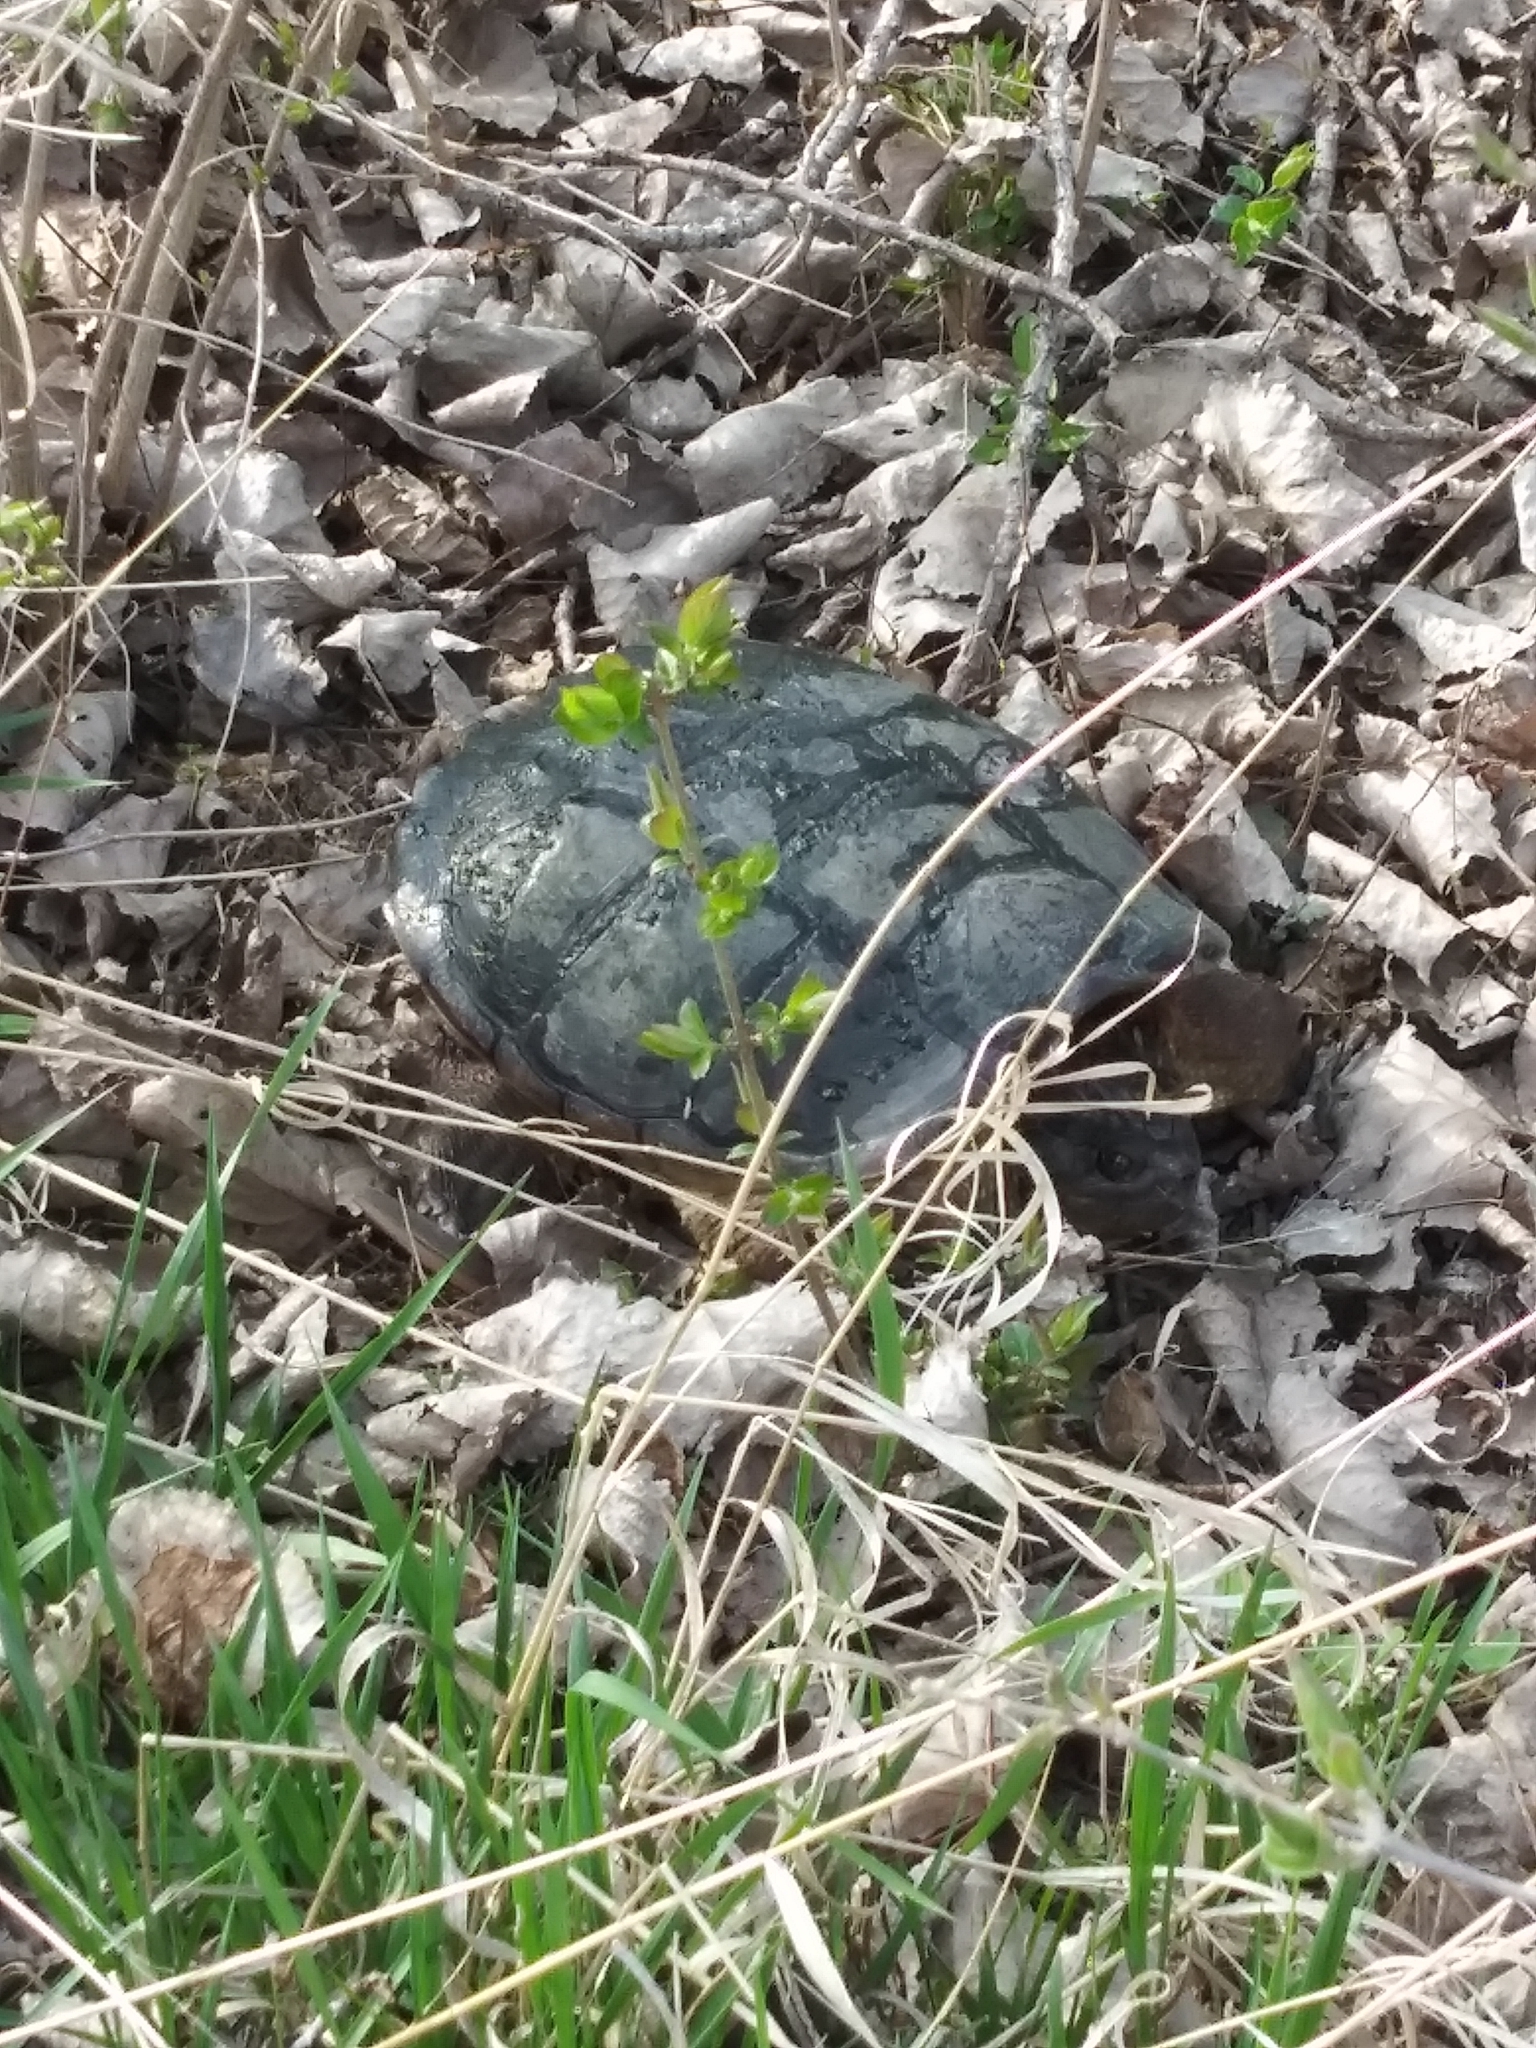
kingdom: Animalia
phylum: Chordata
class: Testudines
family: Chelydridae
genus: Chelydra
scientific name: Chelydra serpentina
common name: Common snapping turtle
